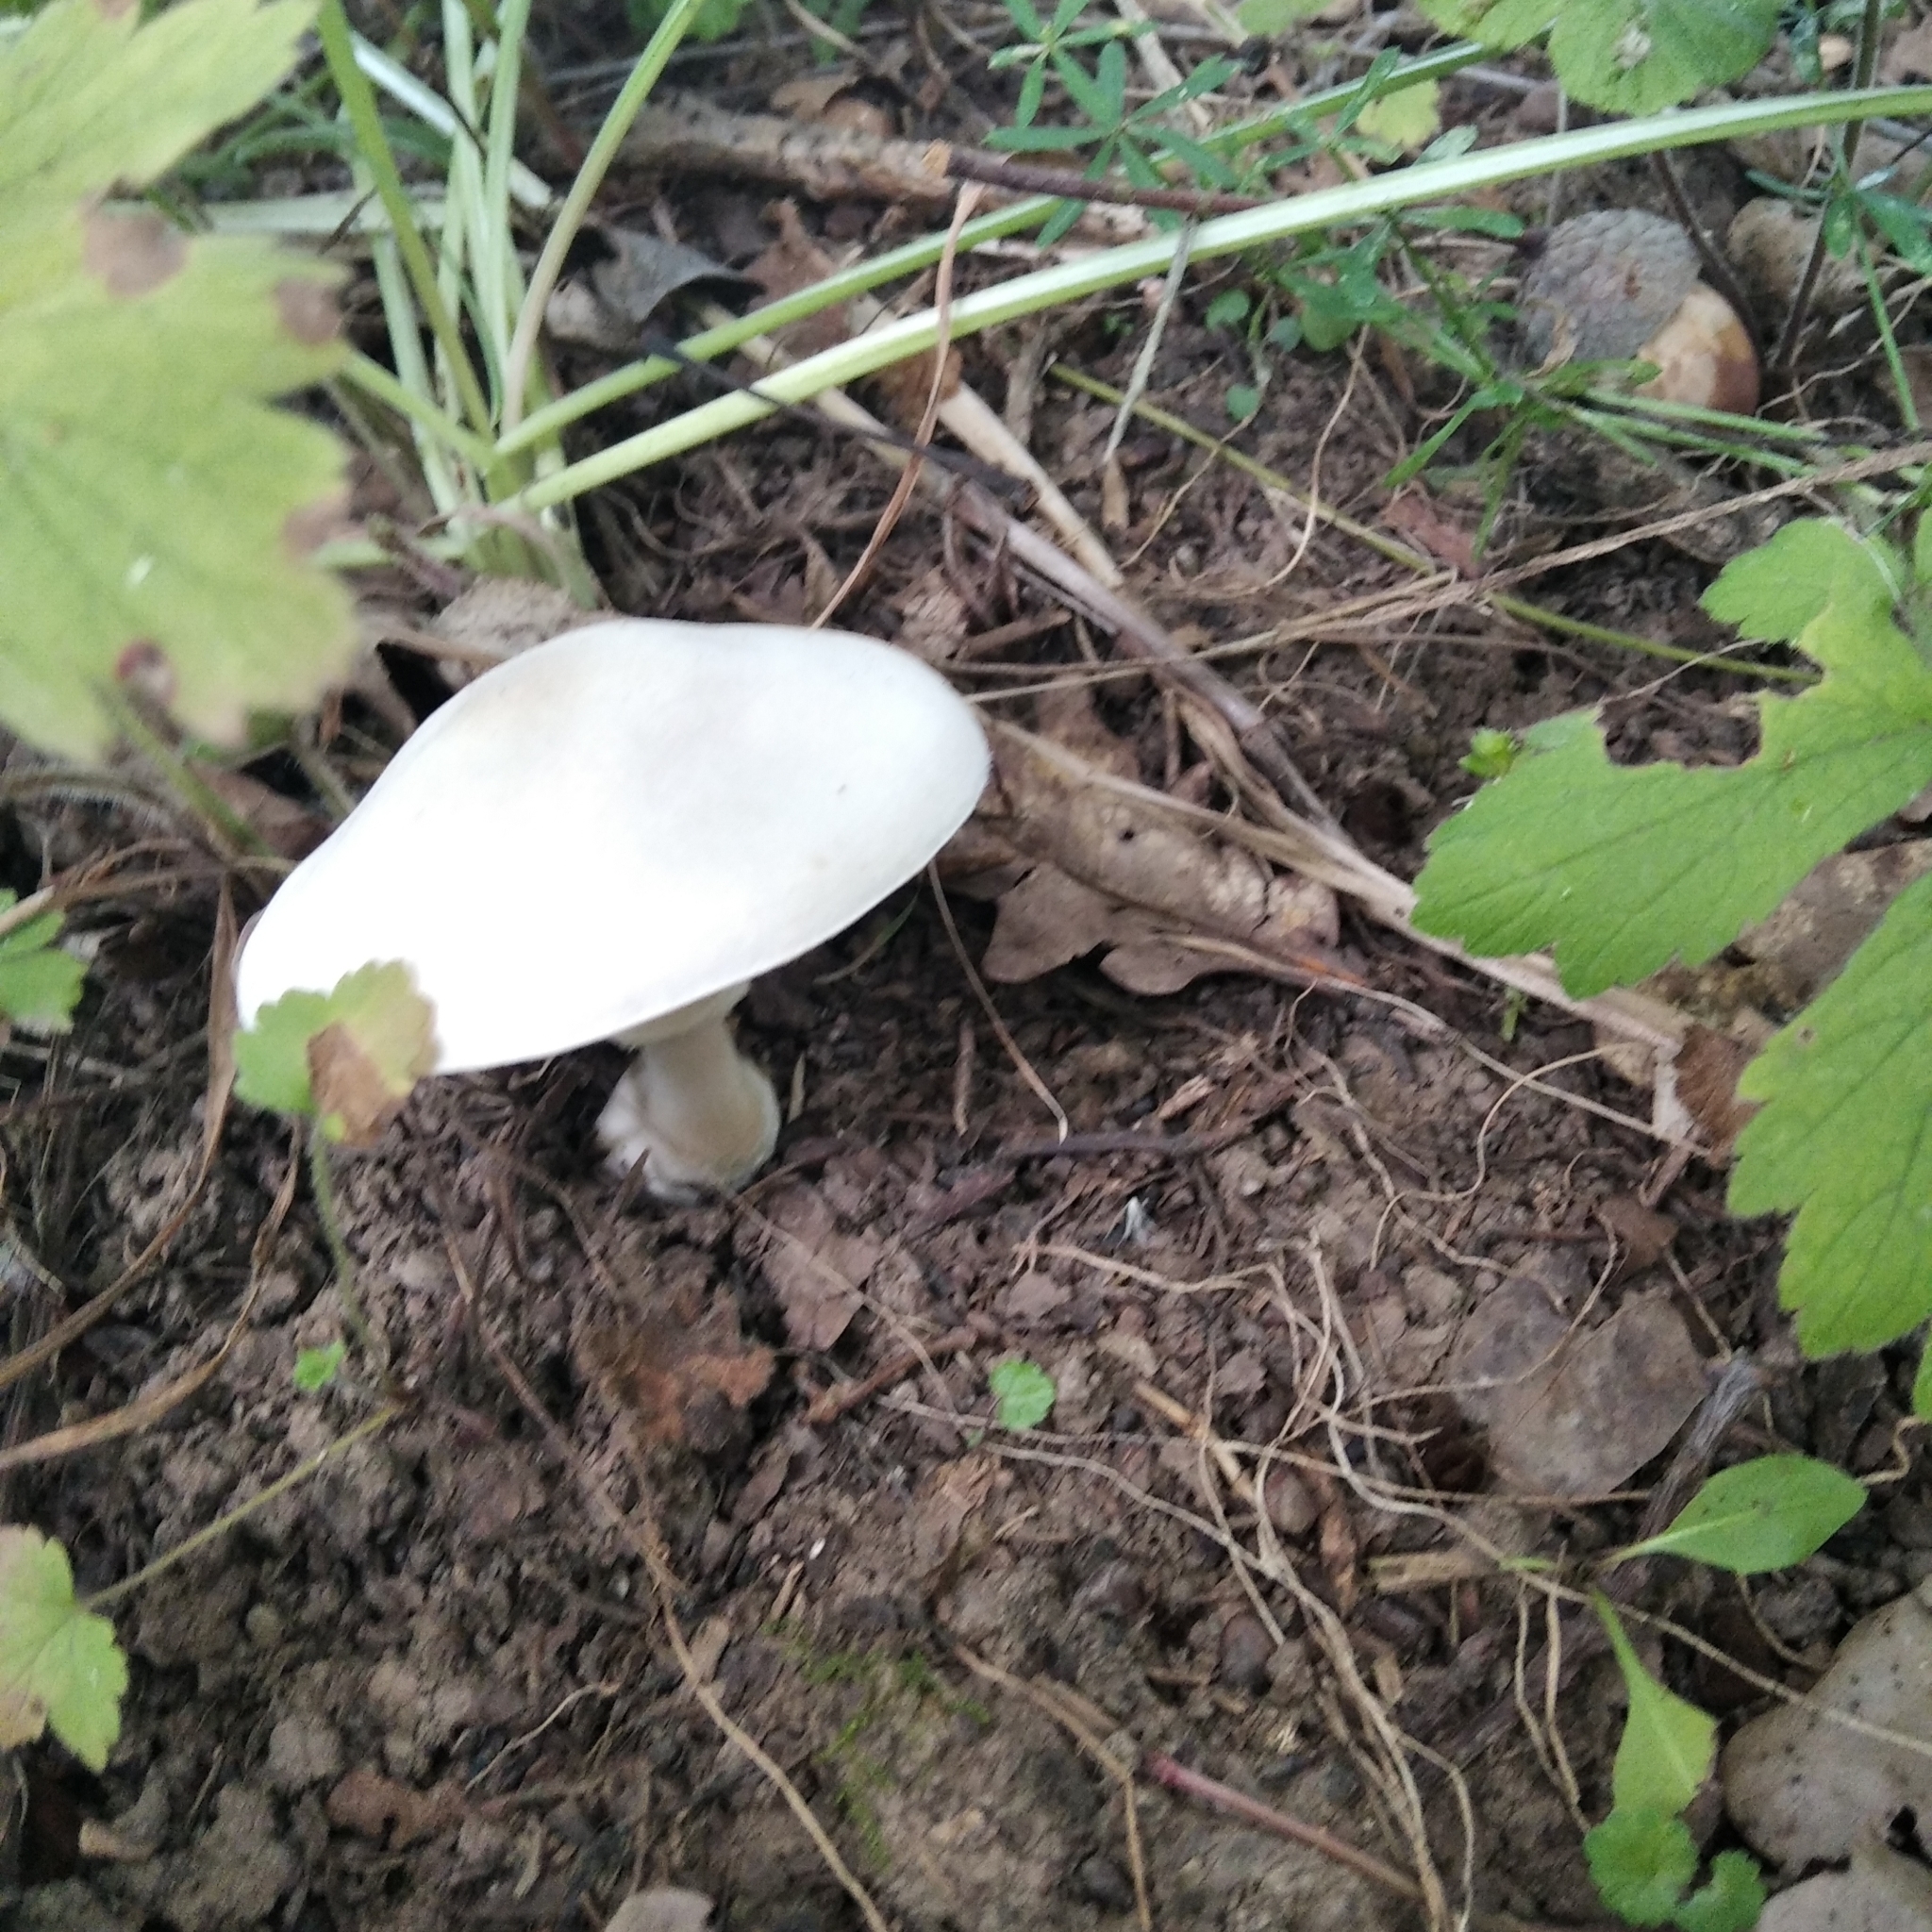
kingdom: Fungi
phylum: Basidiomycota
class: Agaricomycetes
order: Agaricales
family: Agaricaceae
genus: Leucoagaricus
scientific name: Leucoagaricus leucothites
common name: White dapperling
